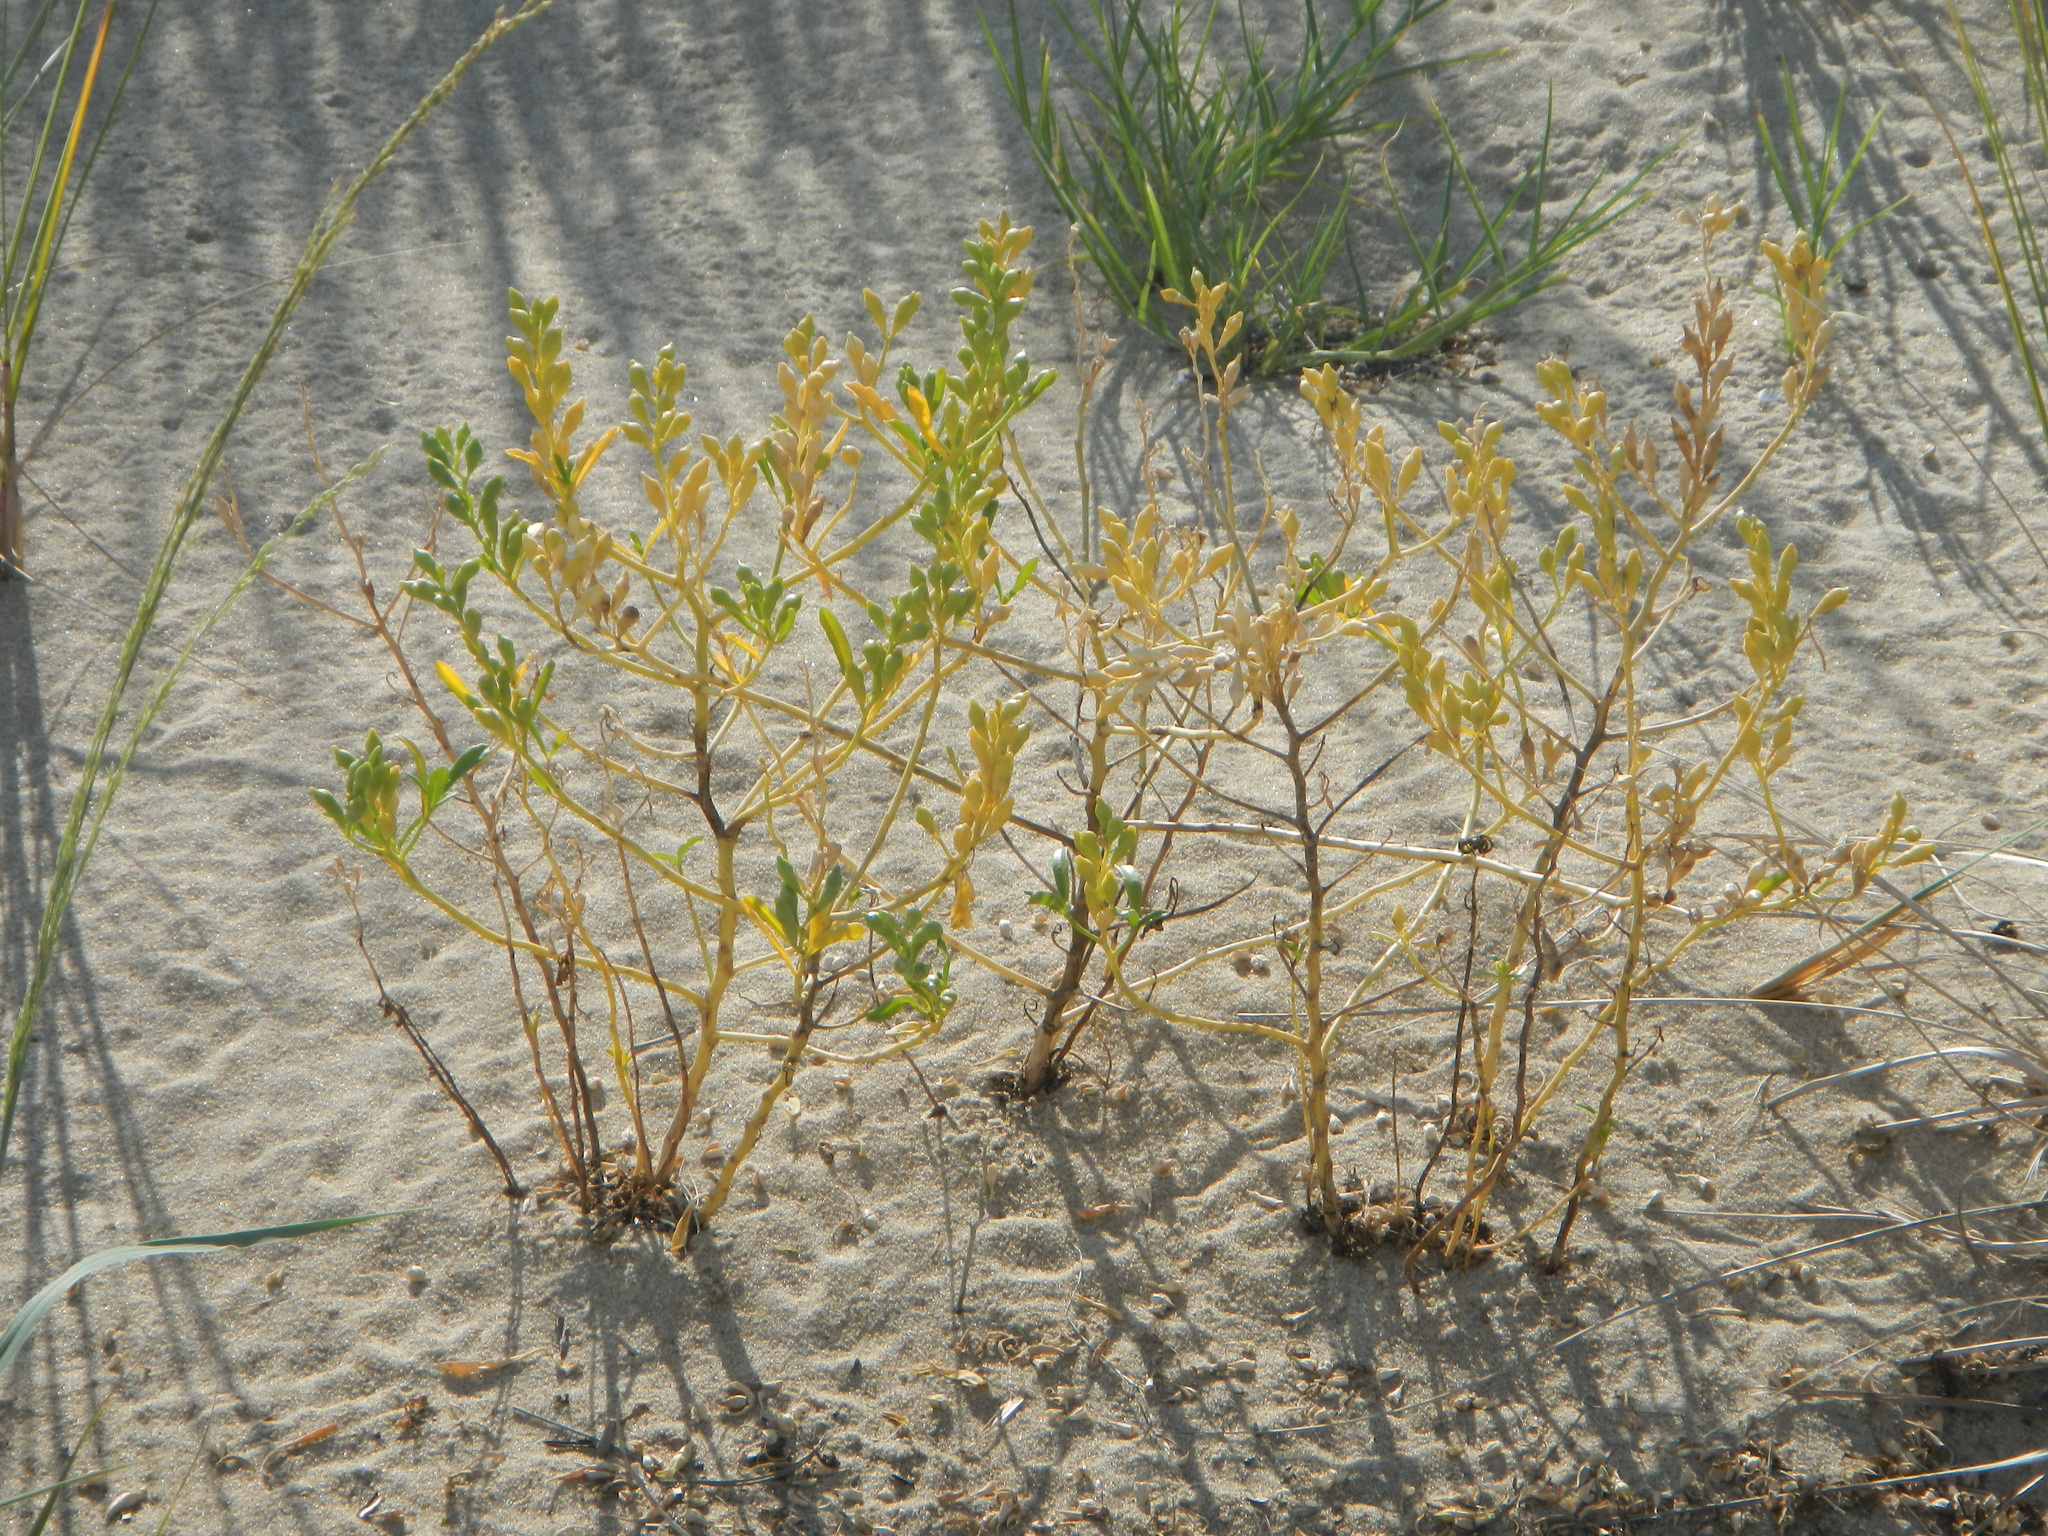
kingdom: Plantae
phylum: Tracheophyta
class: Magnoliopsida
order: Brassicales
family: Brassicaceae
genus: Cakile
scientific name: Cakile edentula
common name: American sea rocket
